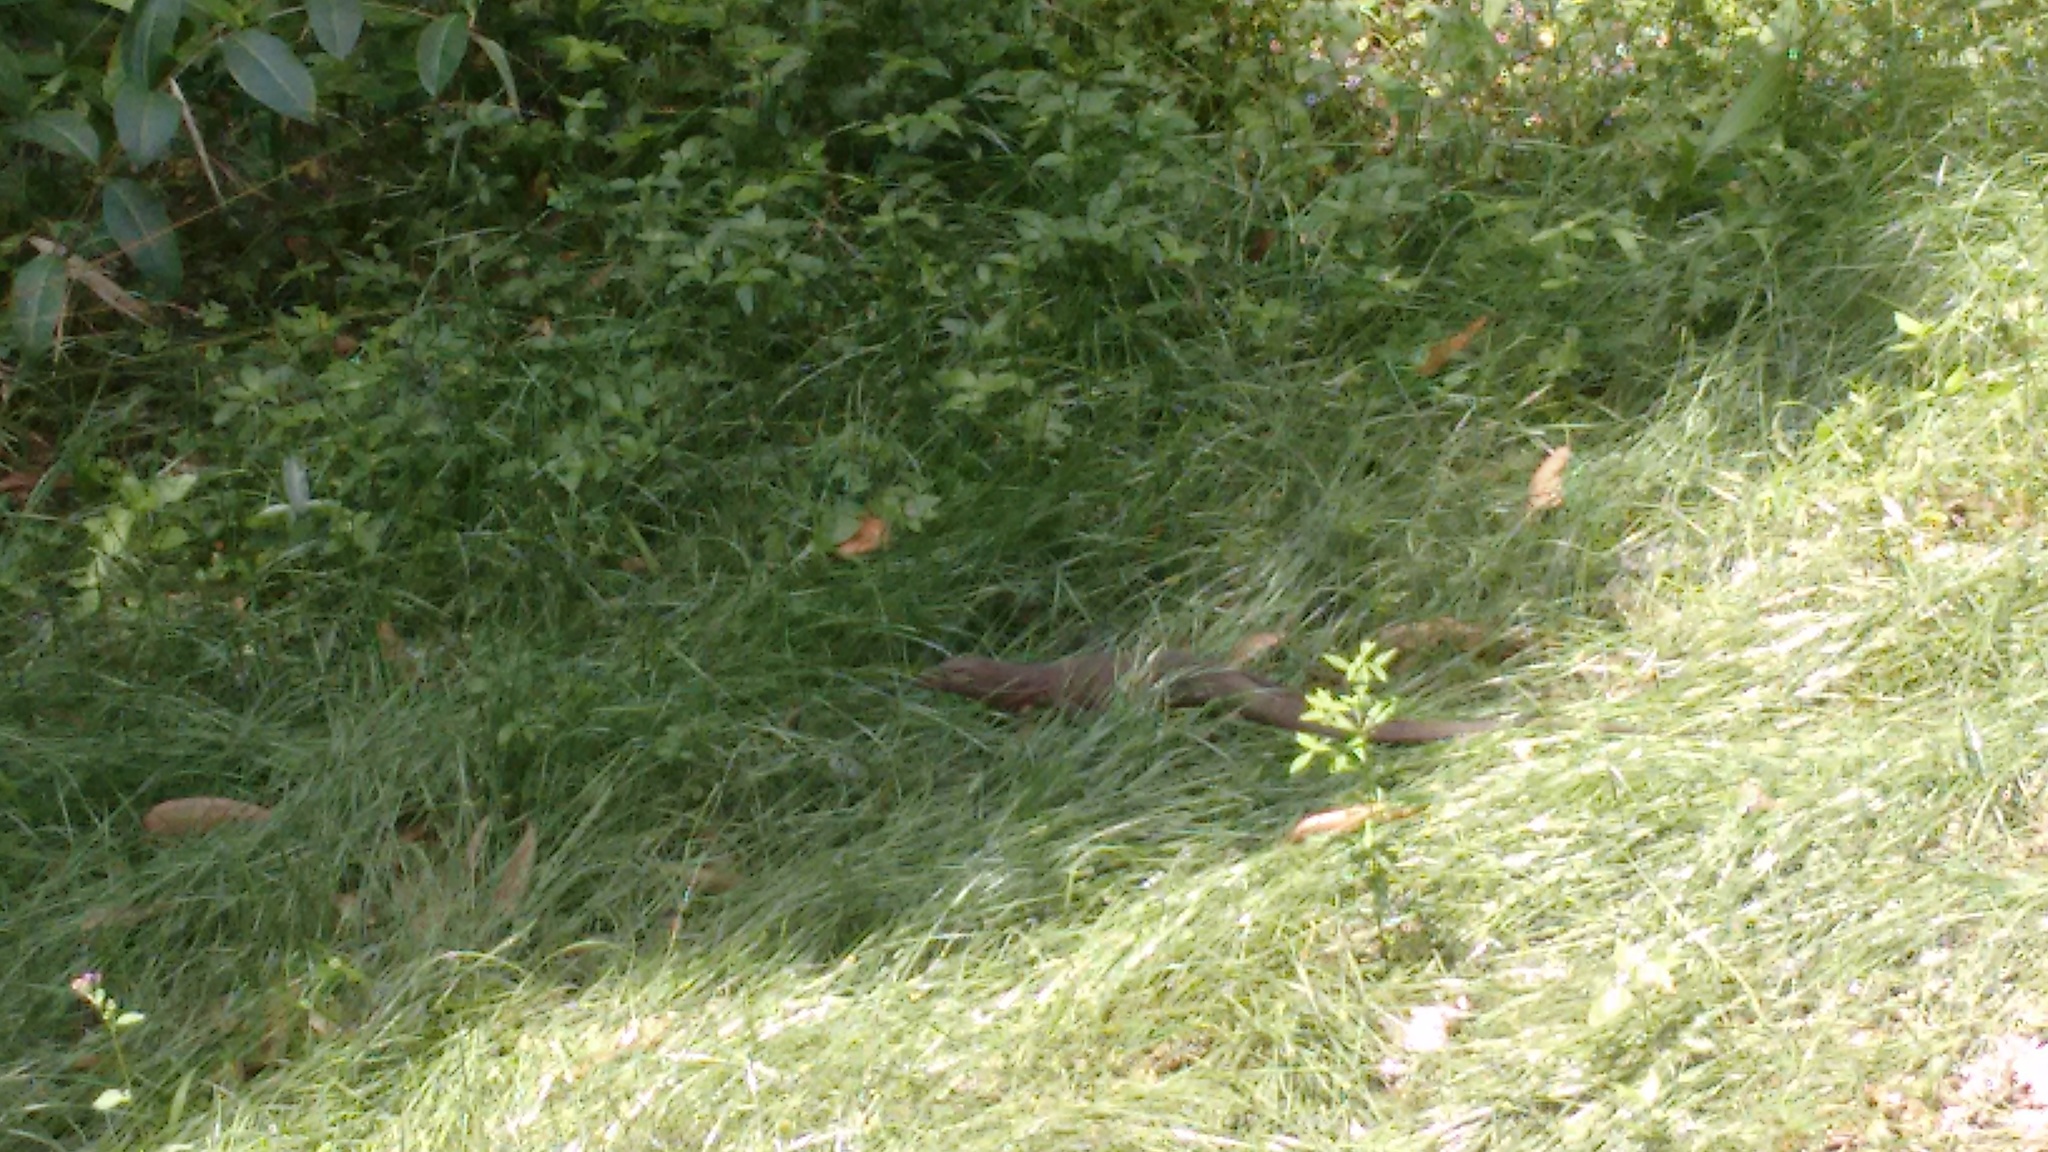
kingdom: Animalia
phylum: Chordata
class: Squamata
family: Varanidae
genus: Varanus
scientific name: Varanus bengalensis
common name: Bengal monitor
